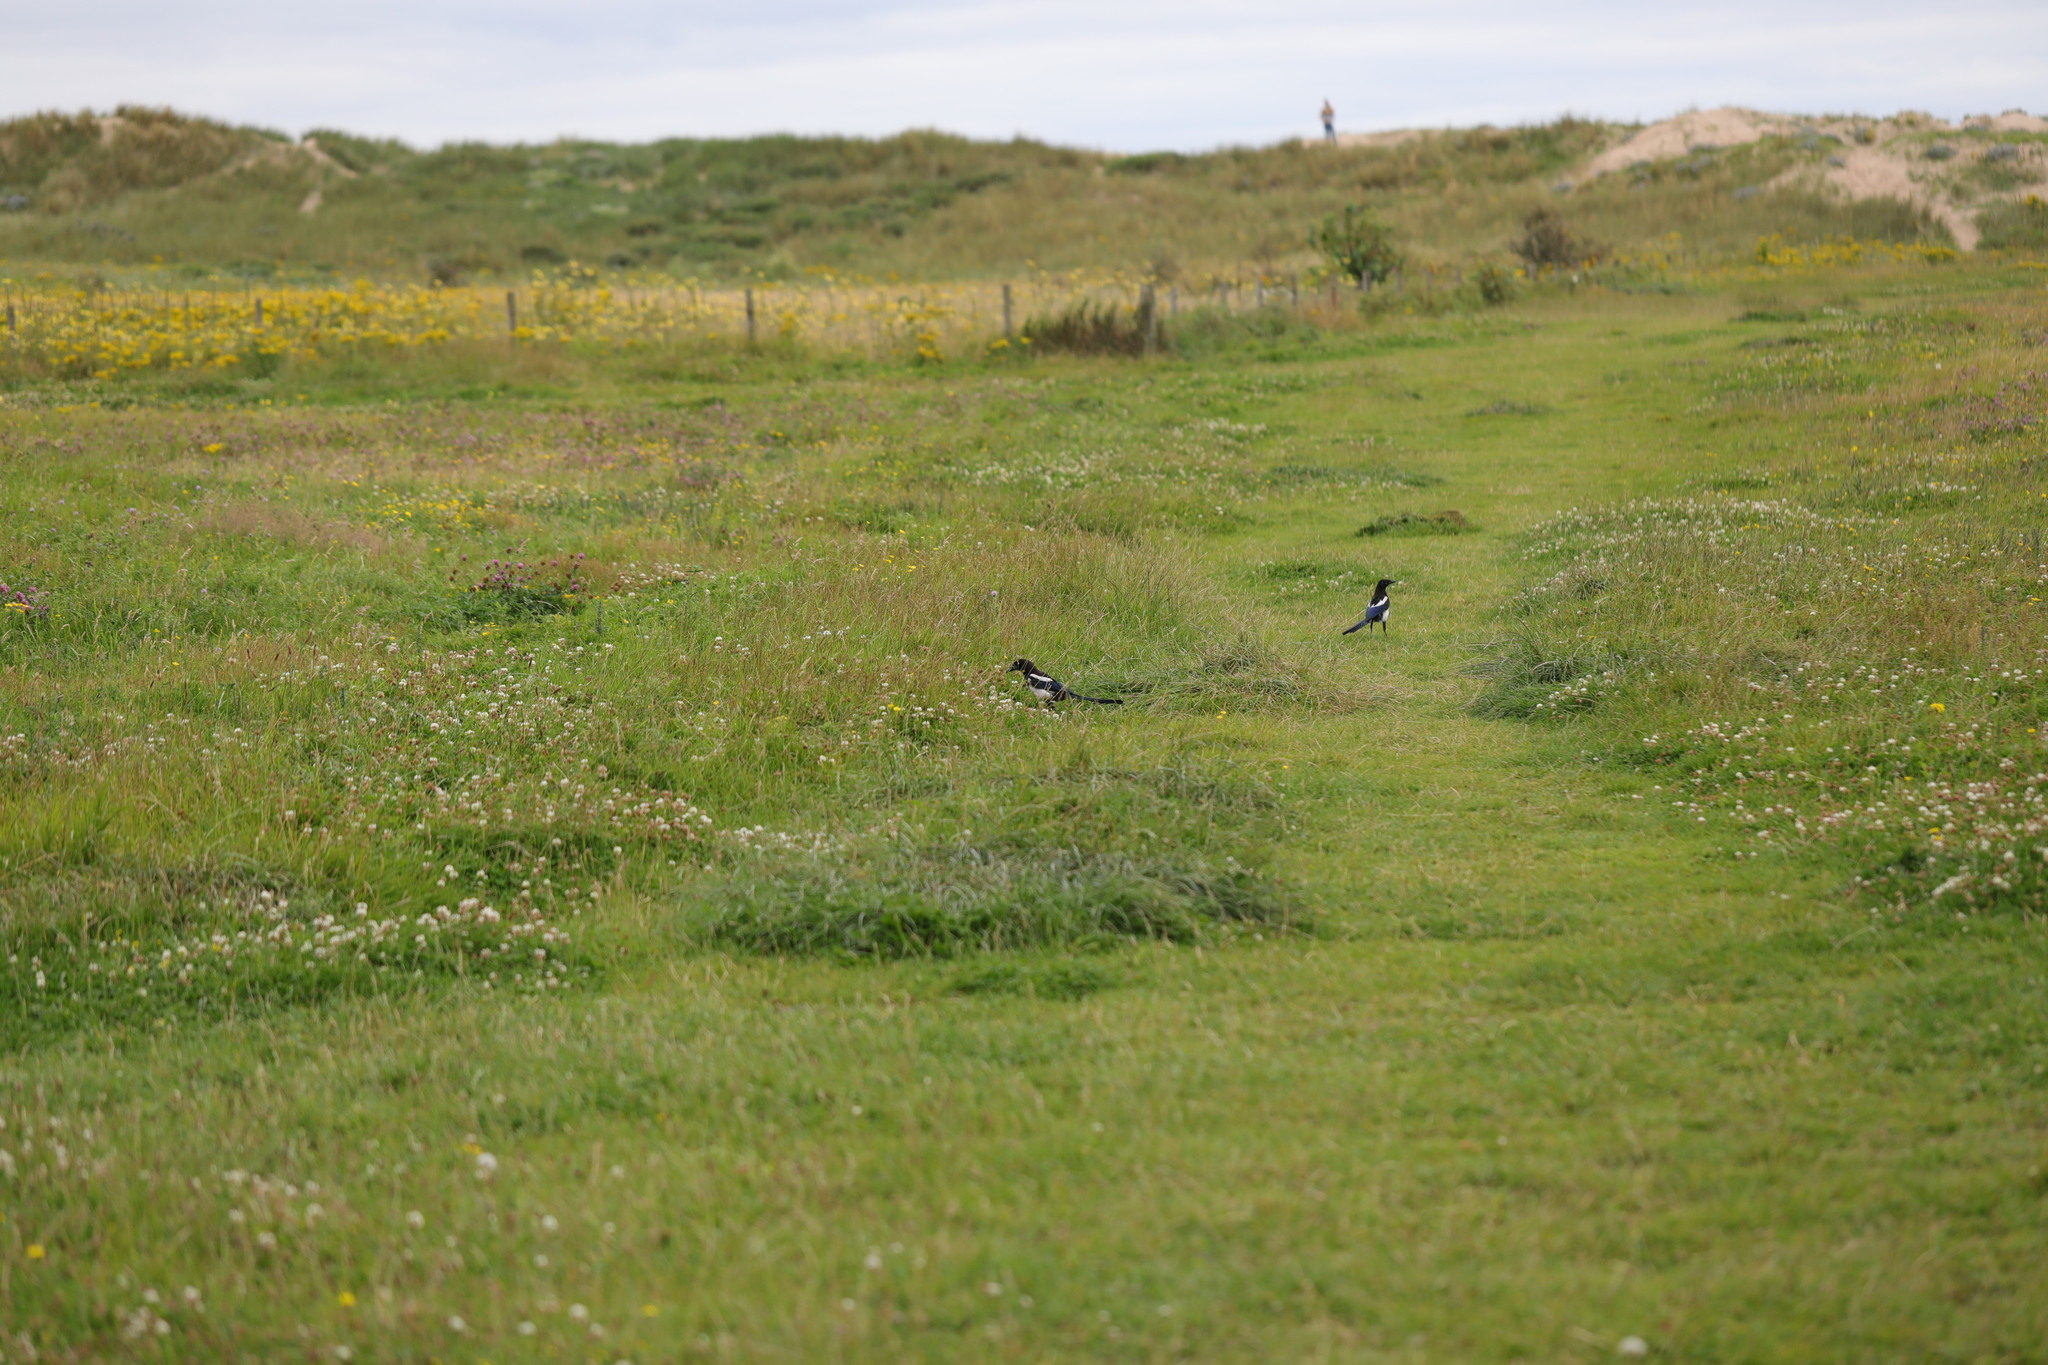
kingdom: Animalia
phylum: Chordata
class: Aves
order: Passeriformes
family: Corvidae
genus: Pica
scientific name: Pica pica
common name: Eurasian magpie
